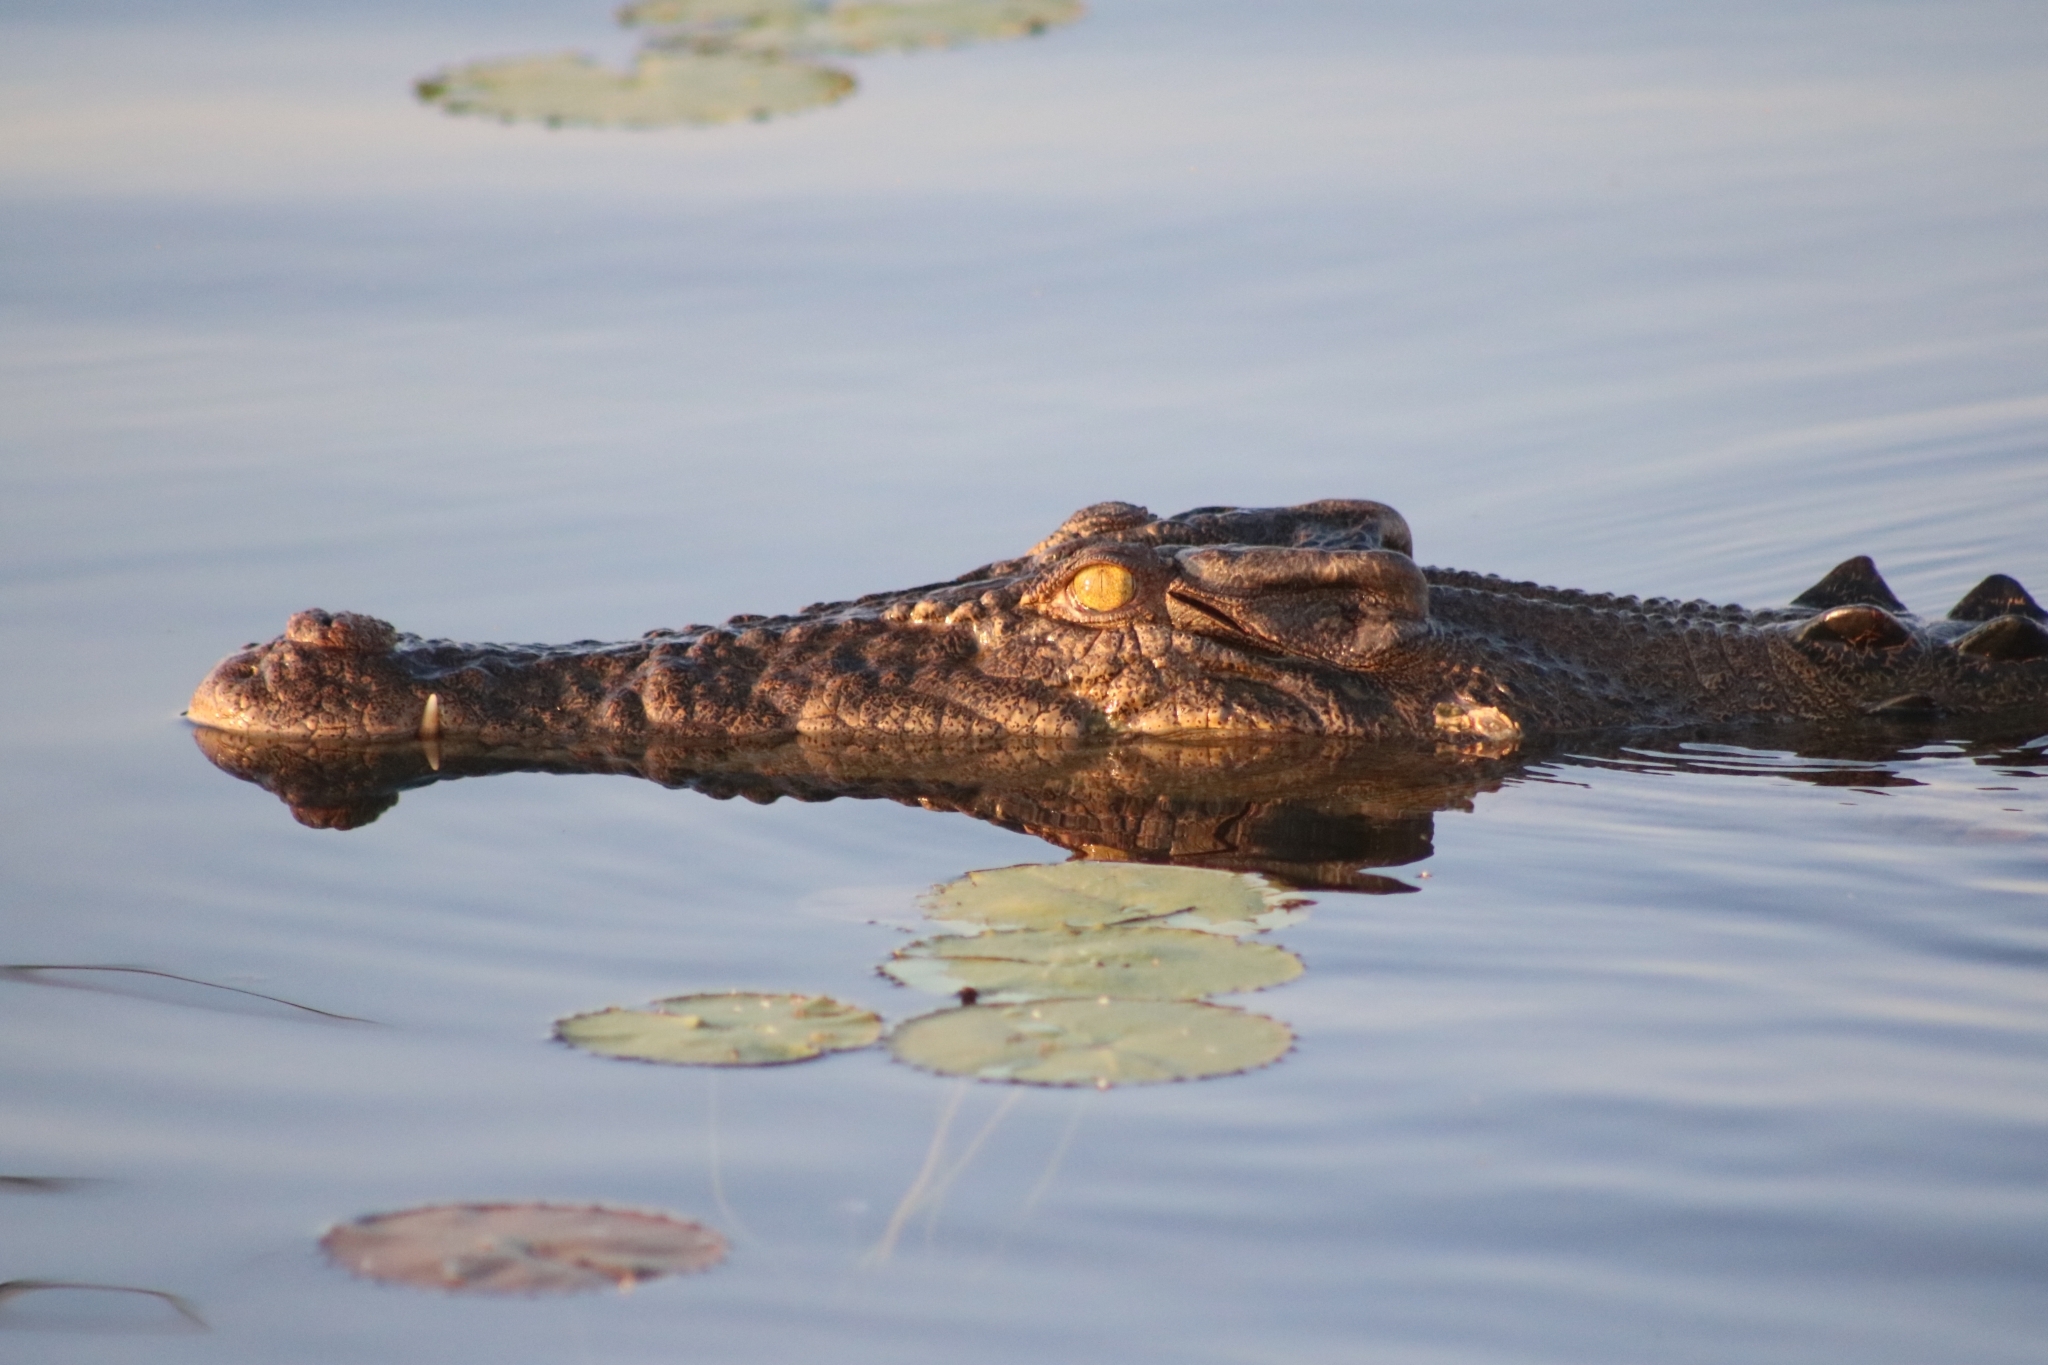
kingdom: Animalia
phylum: Chordata
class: Crocodylia
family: Crocodylidae
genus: Crocodylus
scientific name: Crocodylus porosus
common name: Saltwater crocodile
